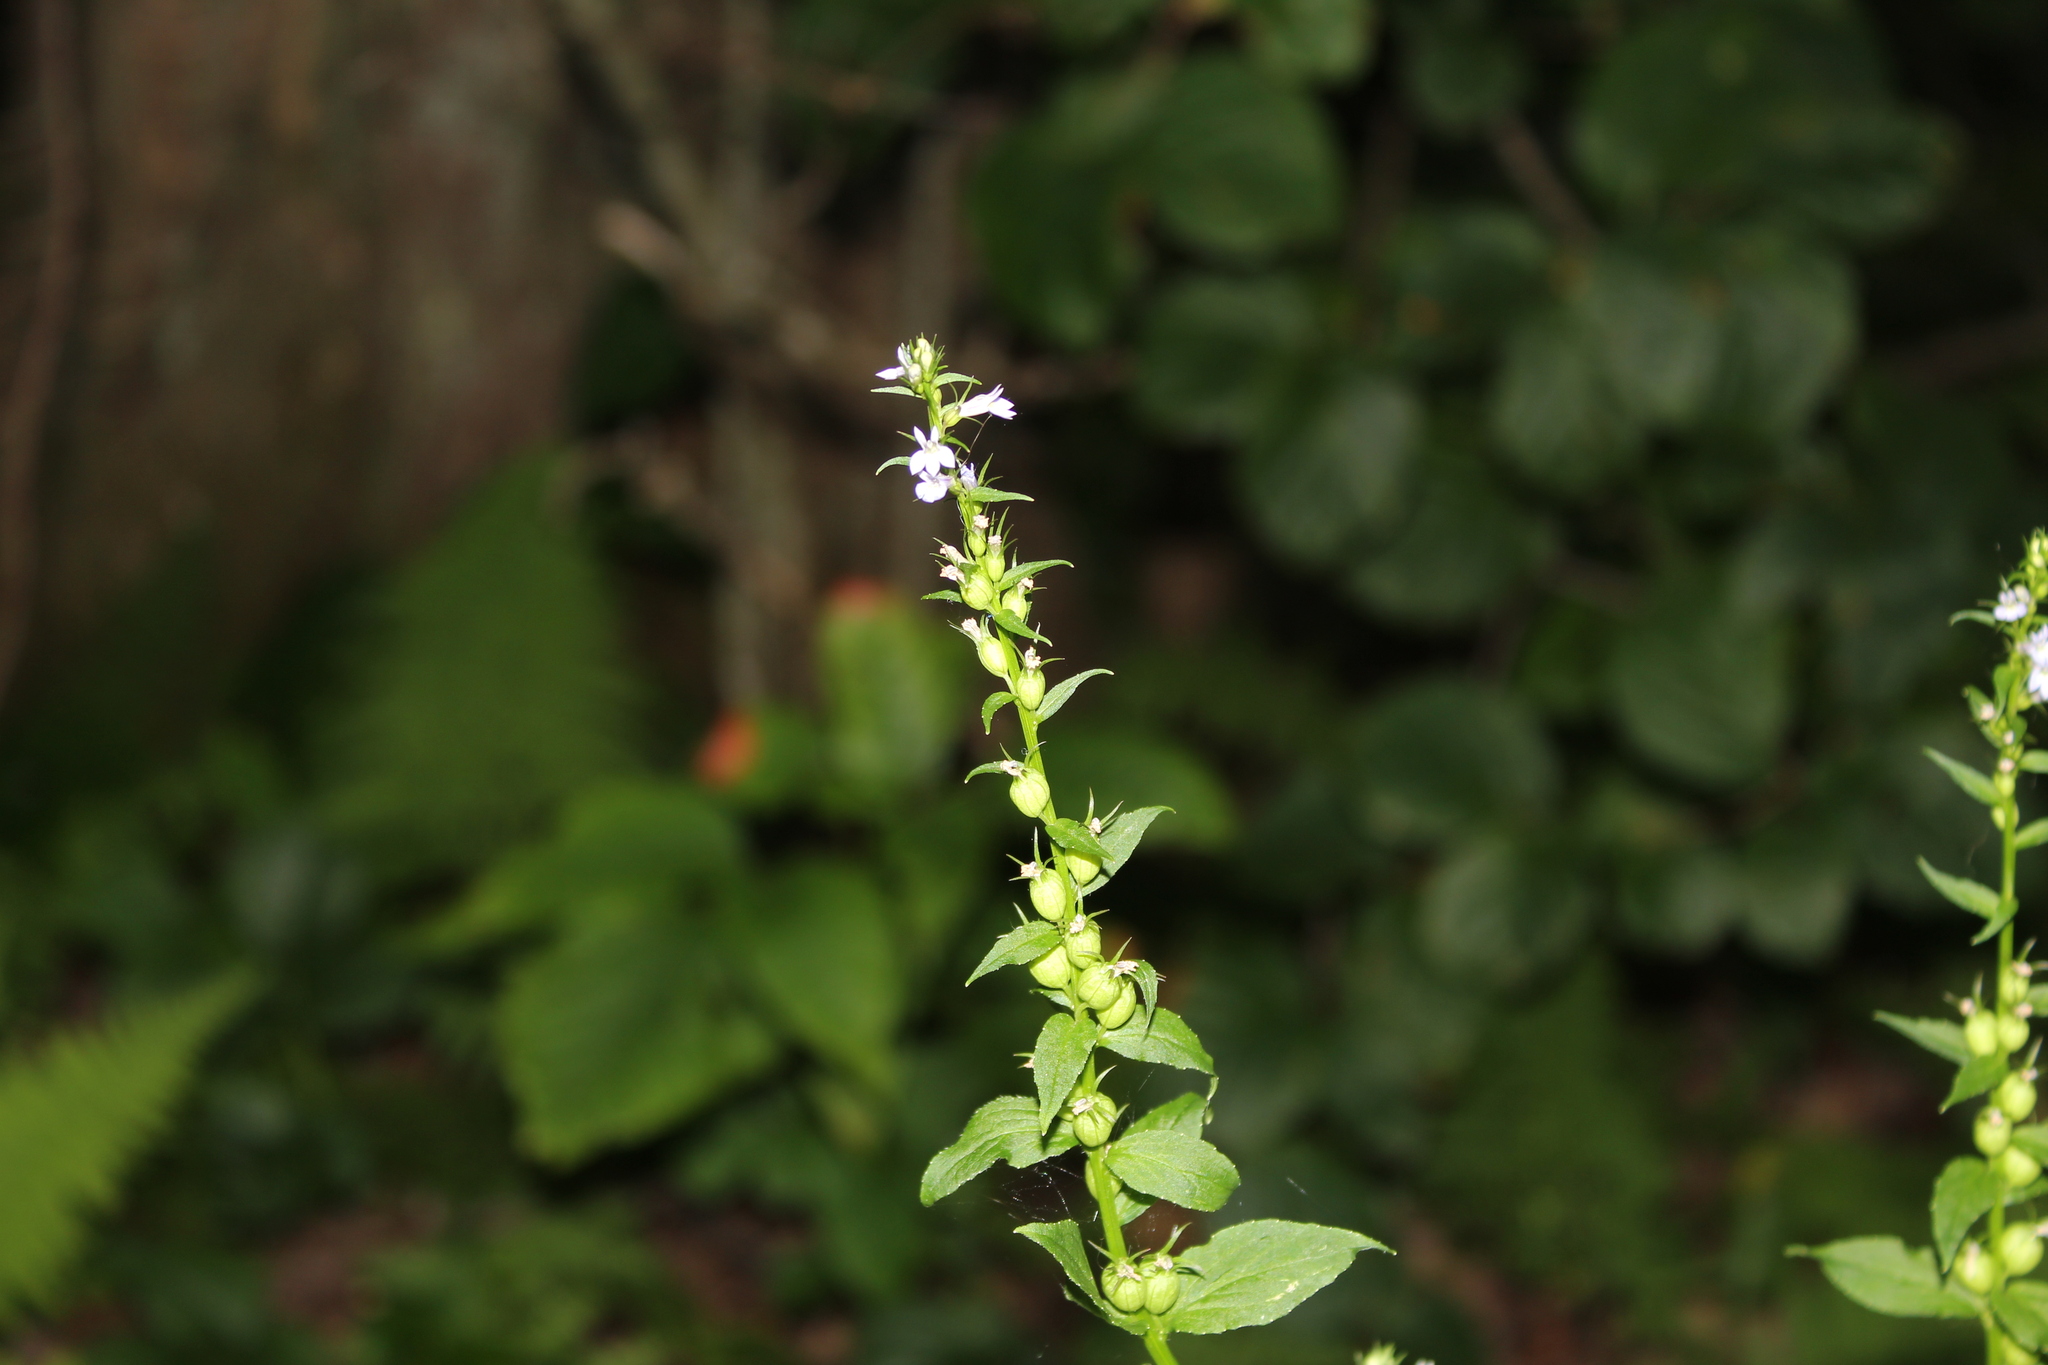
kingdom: Plantae
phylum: Tracheophyta
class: Magnoliopsida
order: Asterales
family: Campanulaceae
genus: Lobelia
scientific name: Lobelia inflata
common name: Indian tobacco
